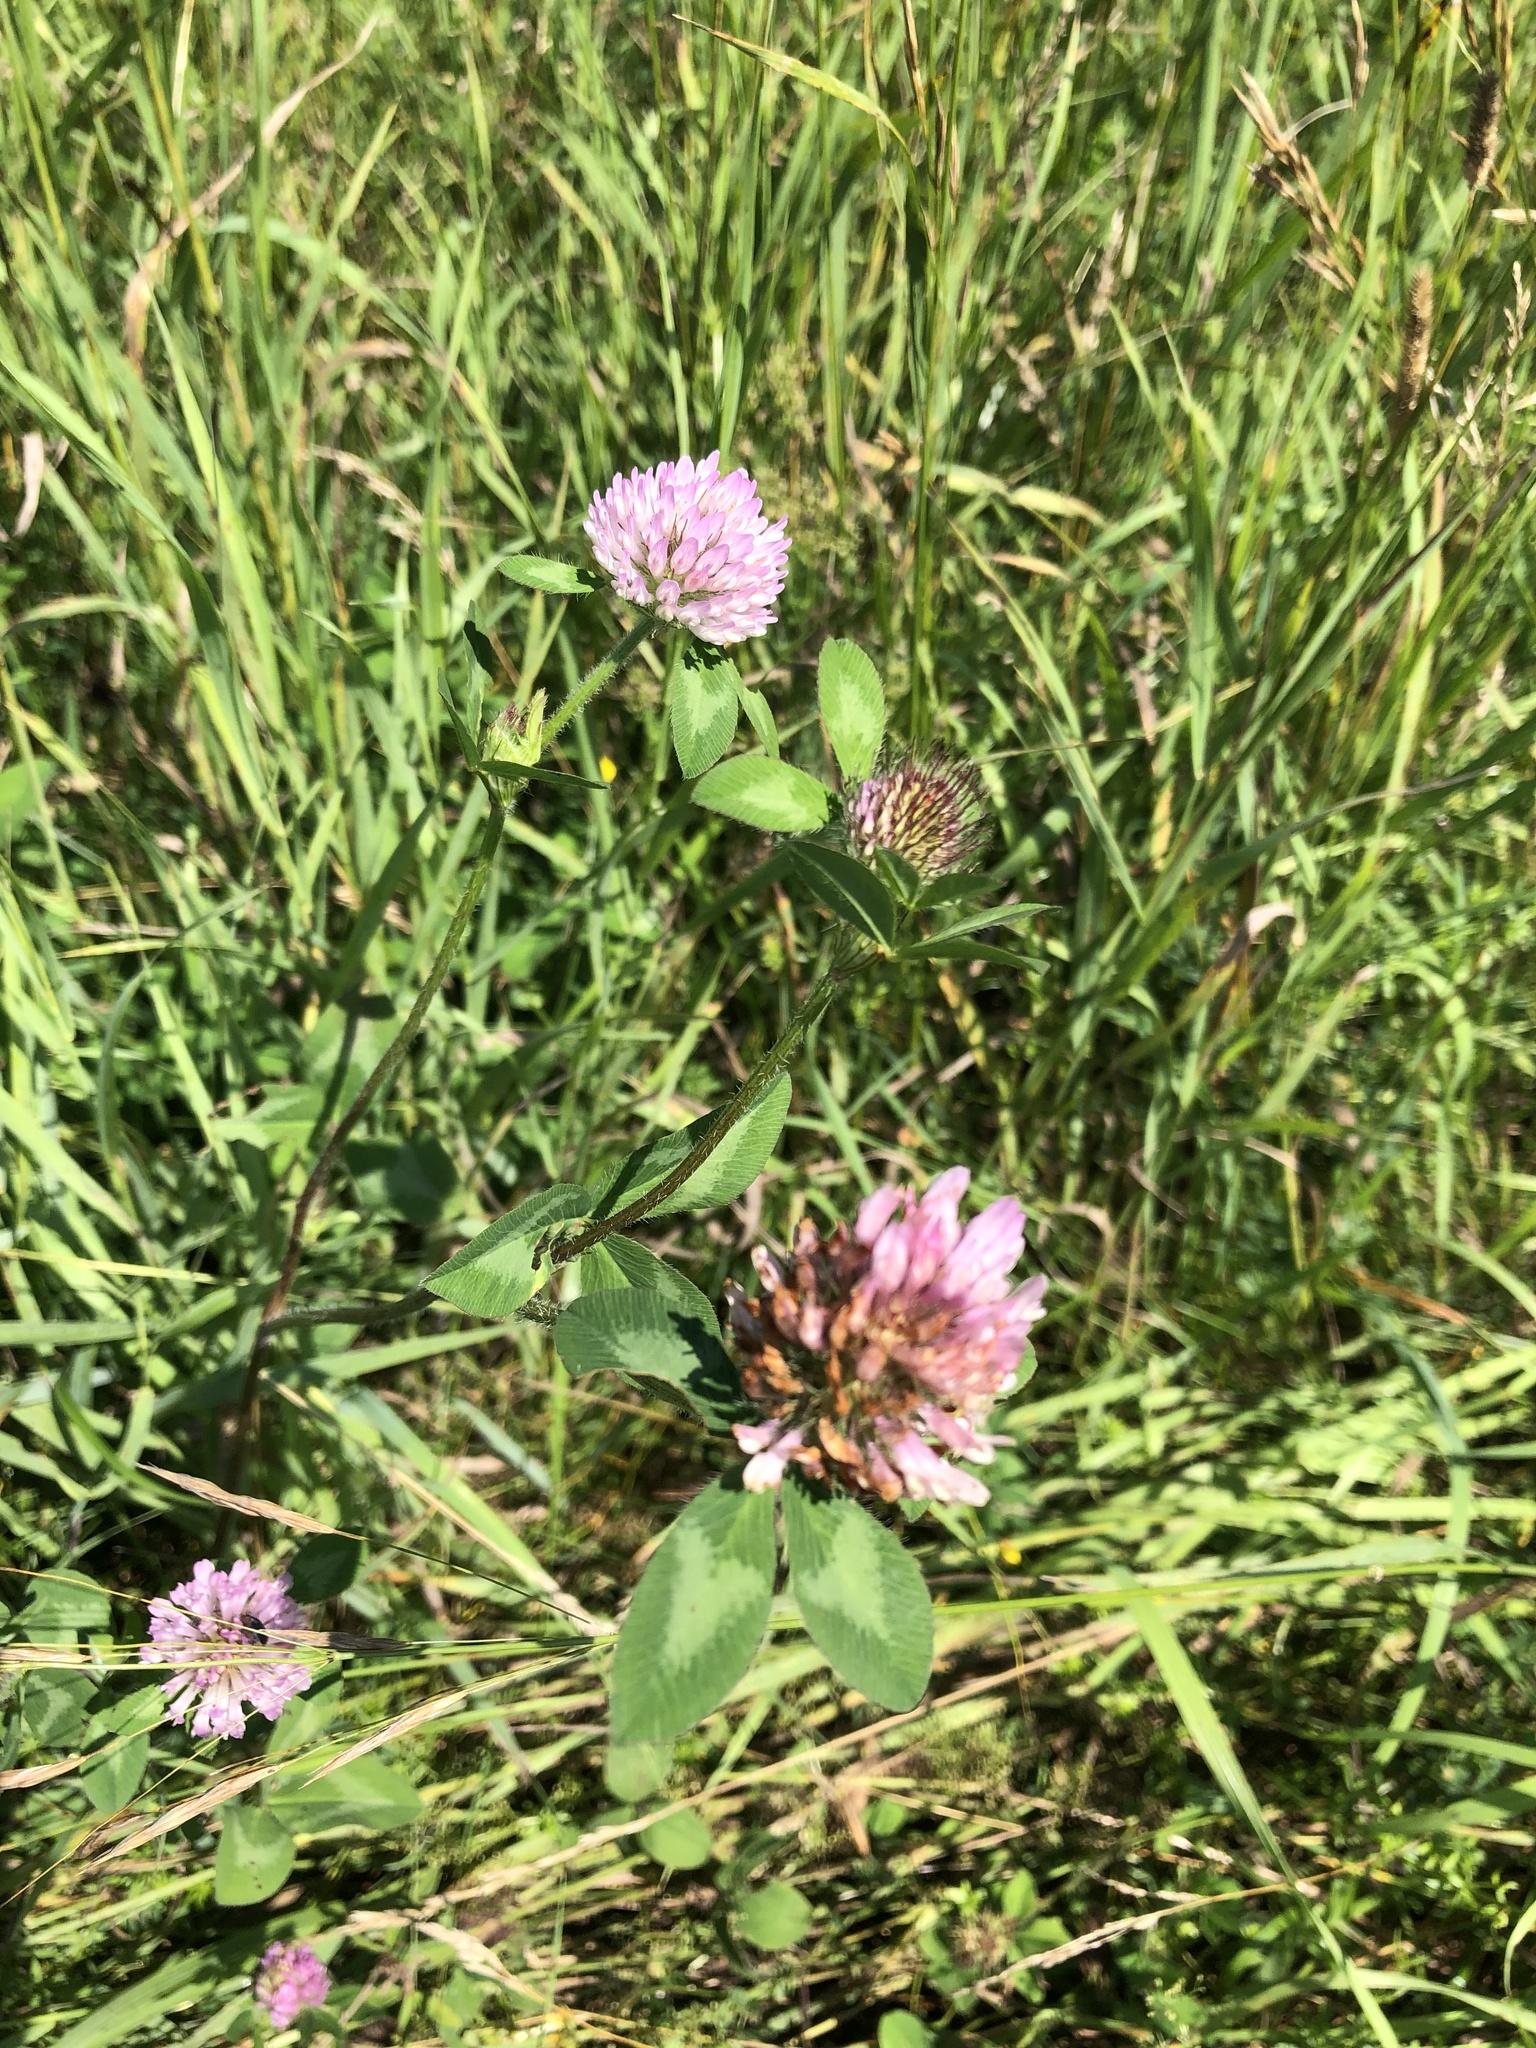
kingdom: Plantae
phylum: Tracheophyta
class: Magnoliopsida
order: Fabales
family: Fabaceae
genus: Trifolium
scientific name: Trifolium pratense
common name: Red clover
